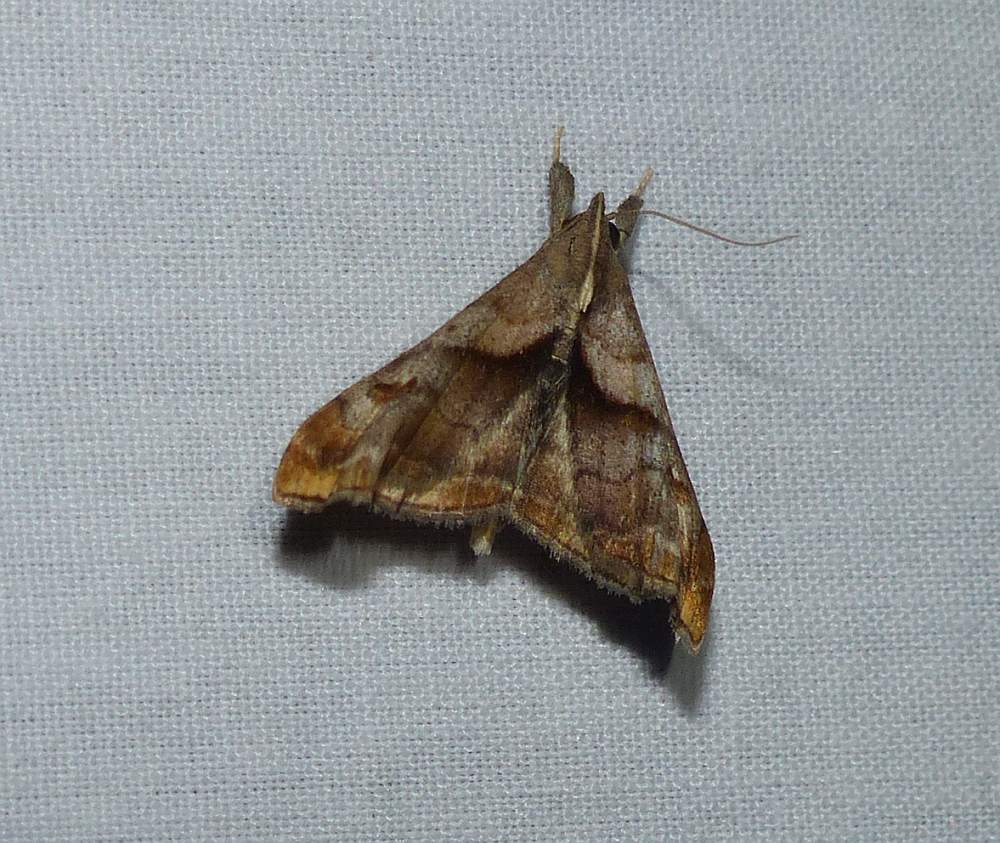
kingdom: Animalia
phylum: Arthropoda
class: Insecta
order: Lepidoptera
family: Erebidae
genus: Palthis
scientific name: Palthis angulalis
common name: Dark-spotted palthis moth
